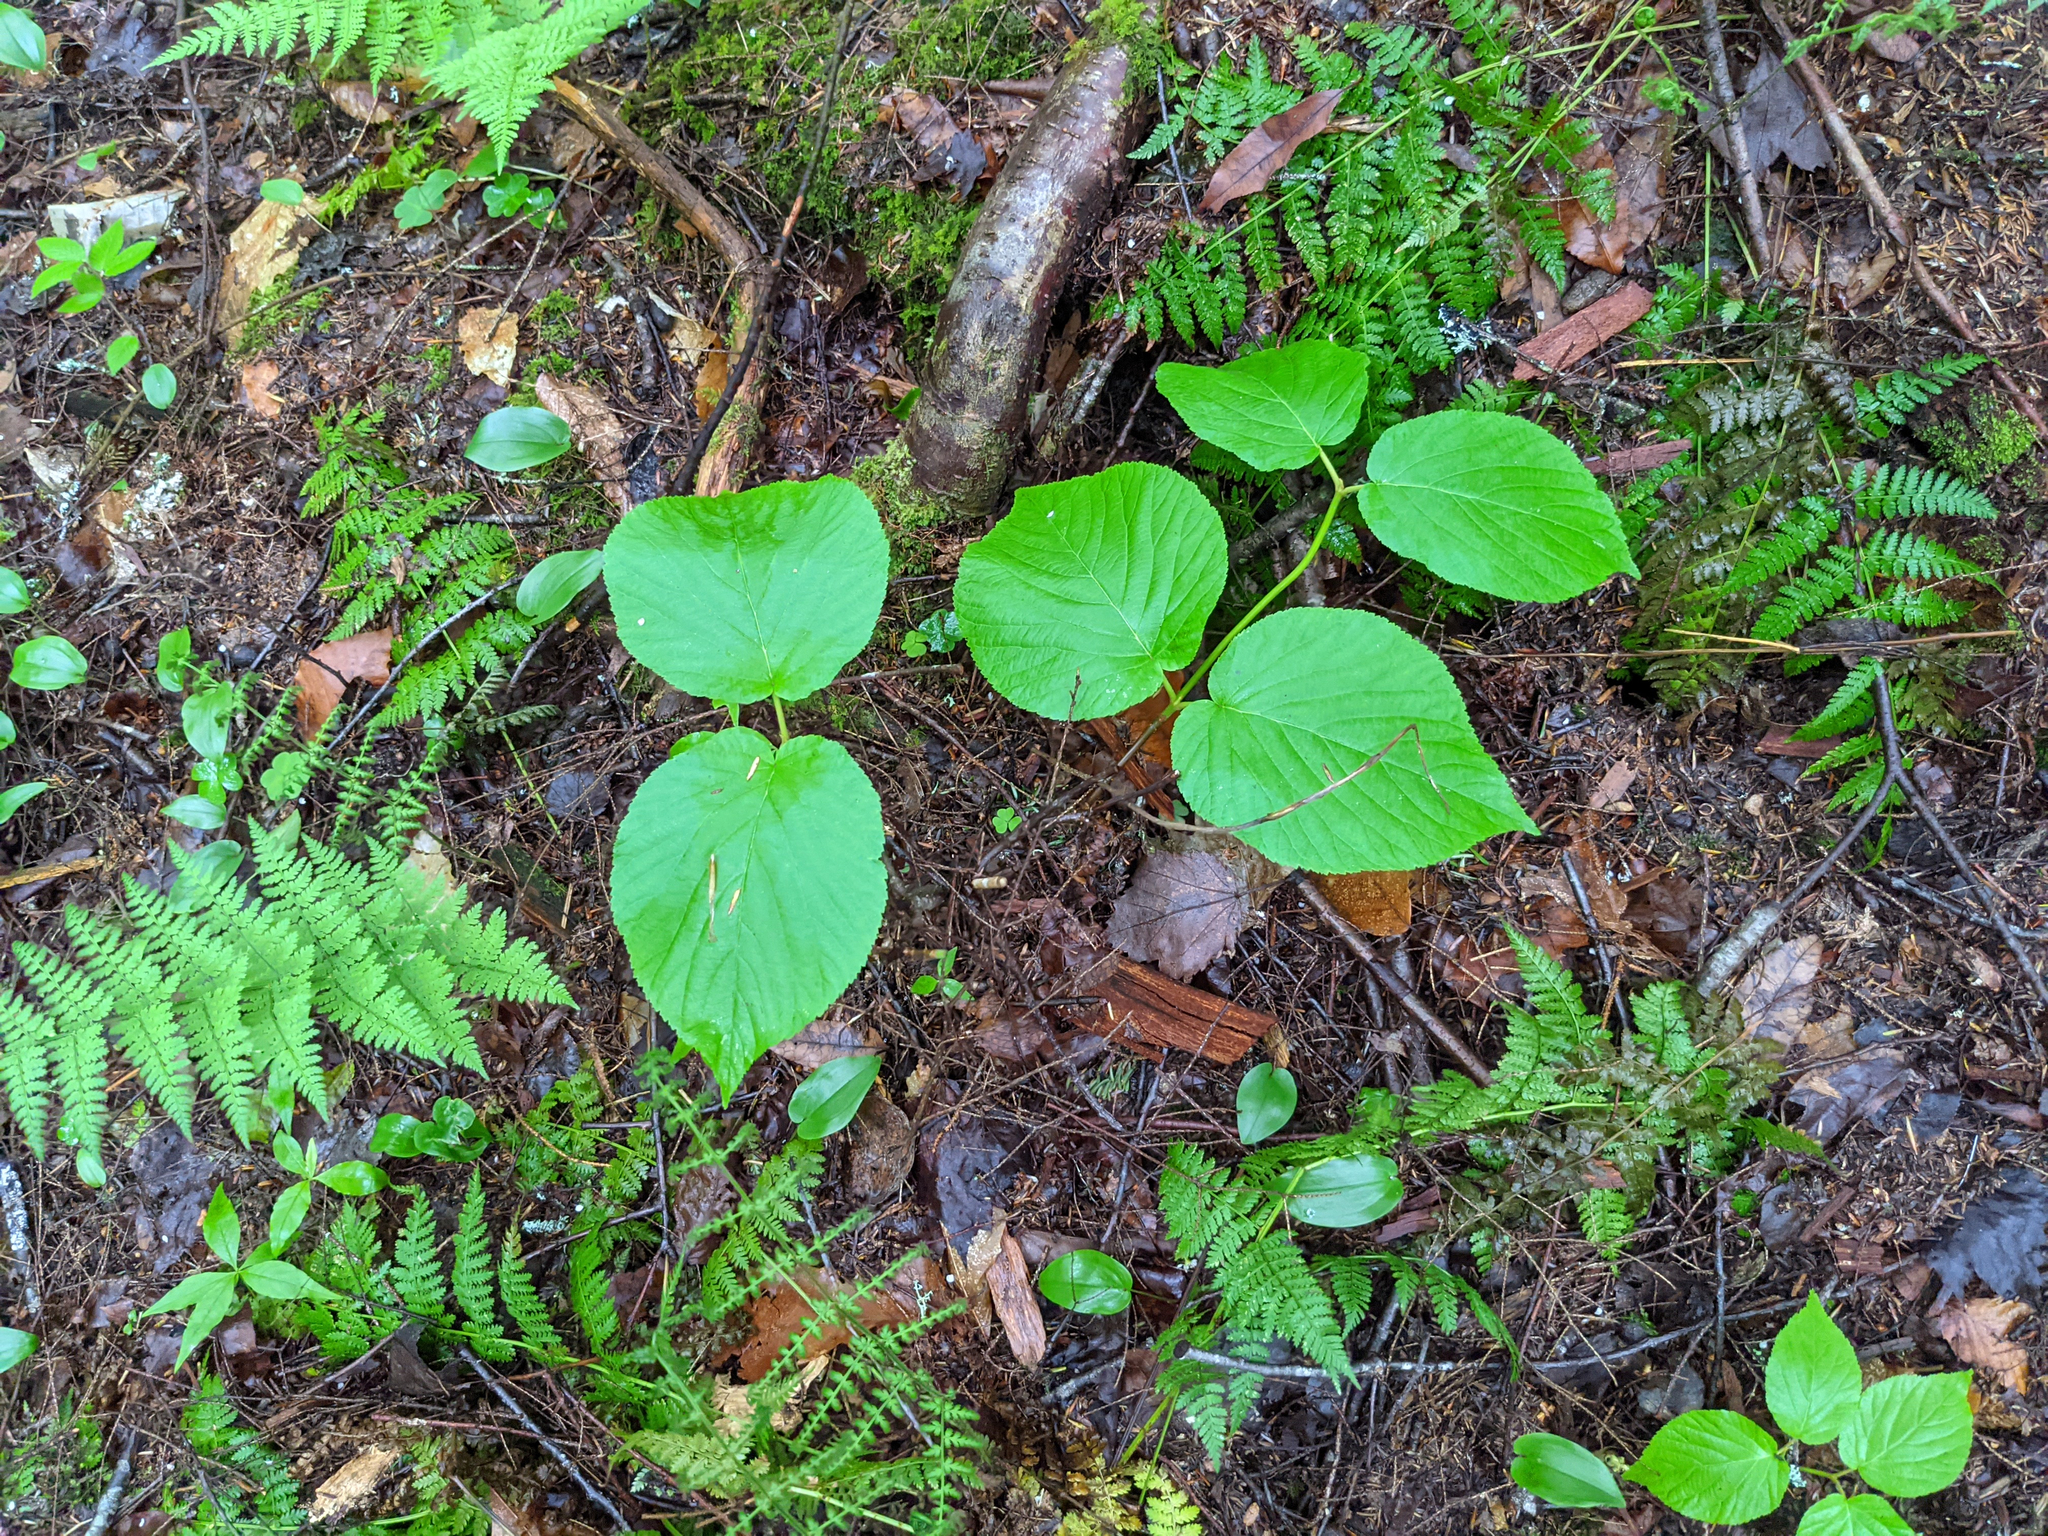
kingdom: Plantae
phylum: Tracheophyta
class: Magnoliopsida
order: Dipsacales
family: Viburnaceae
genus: Viburnum
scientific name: Viburnum lantanoides
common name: Hobblebush
